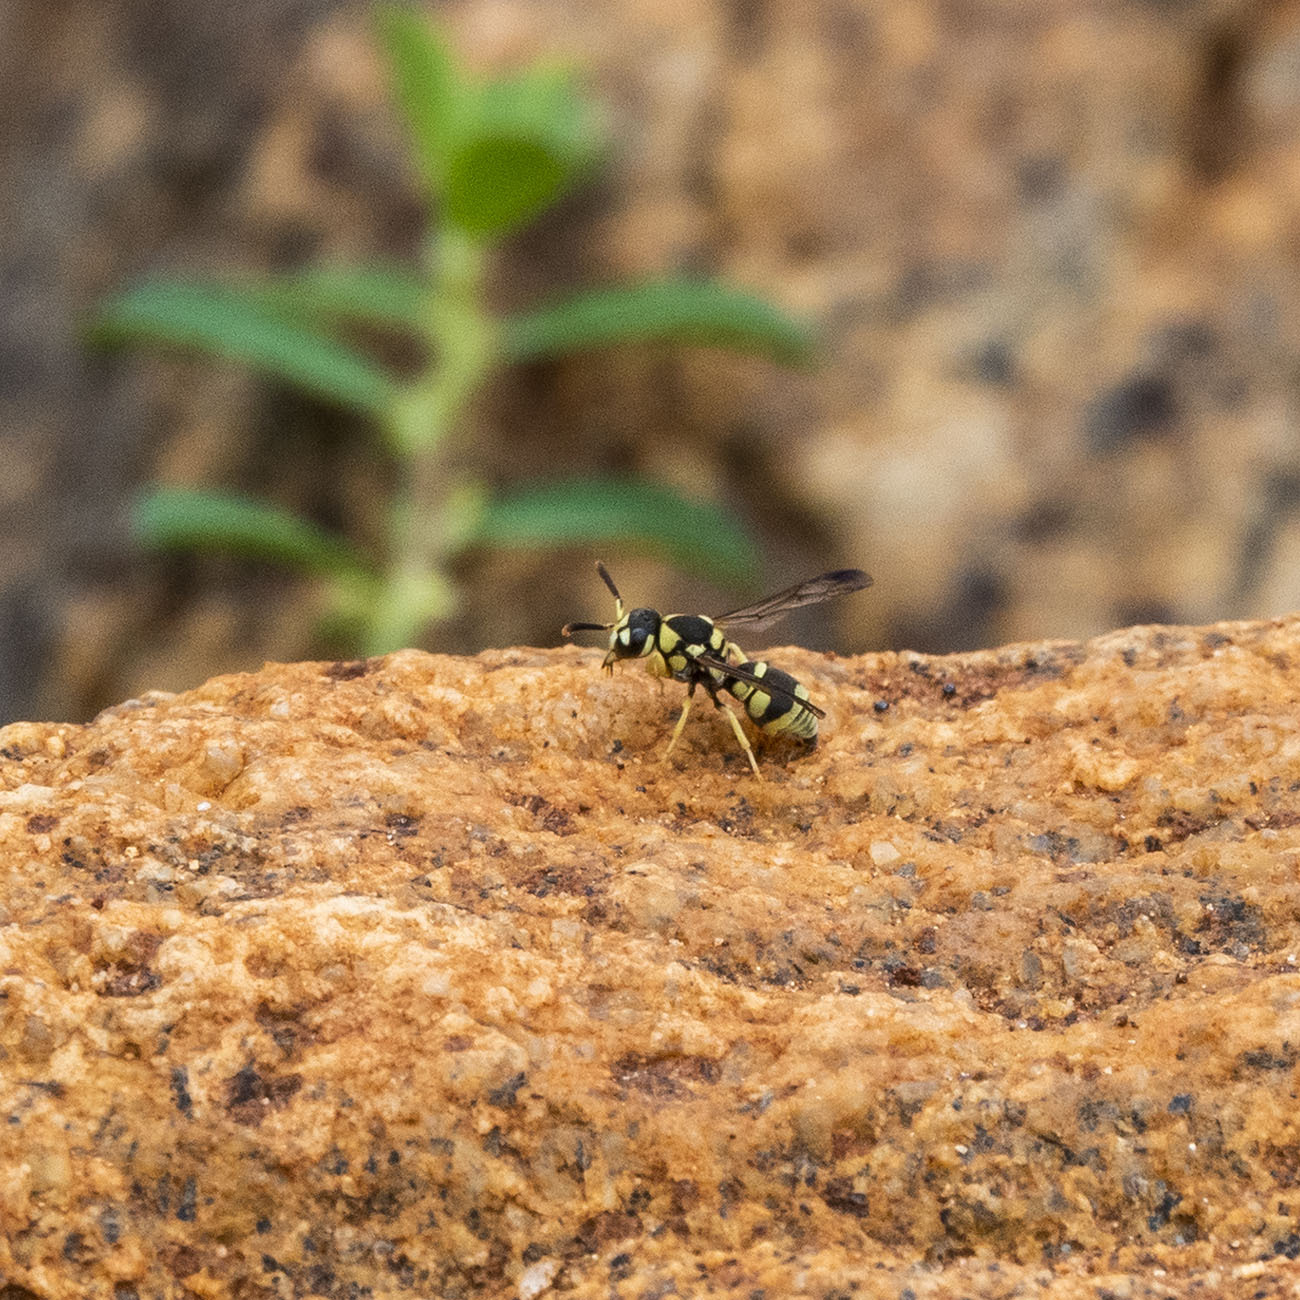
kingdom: Animalia
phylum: Arthropoda
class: Insecta
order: Hymenoptera
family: Eumenidae
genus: Antepipona
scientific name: Antepipona ovalis
